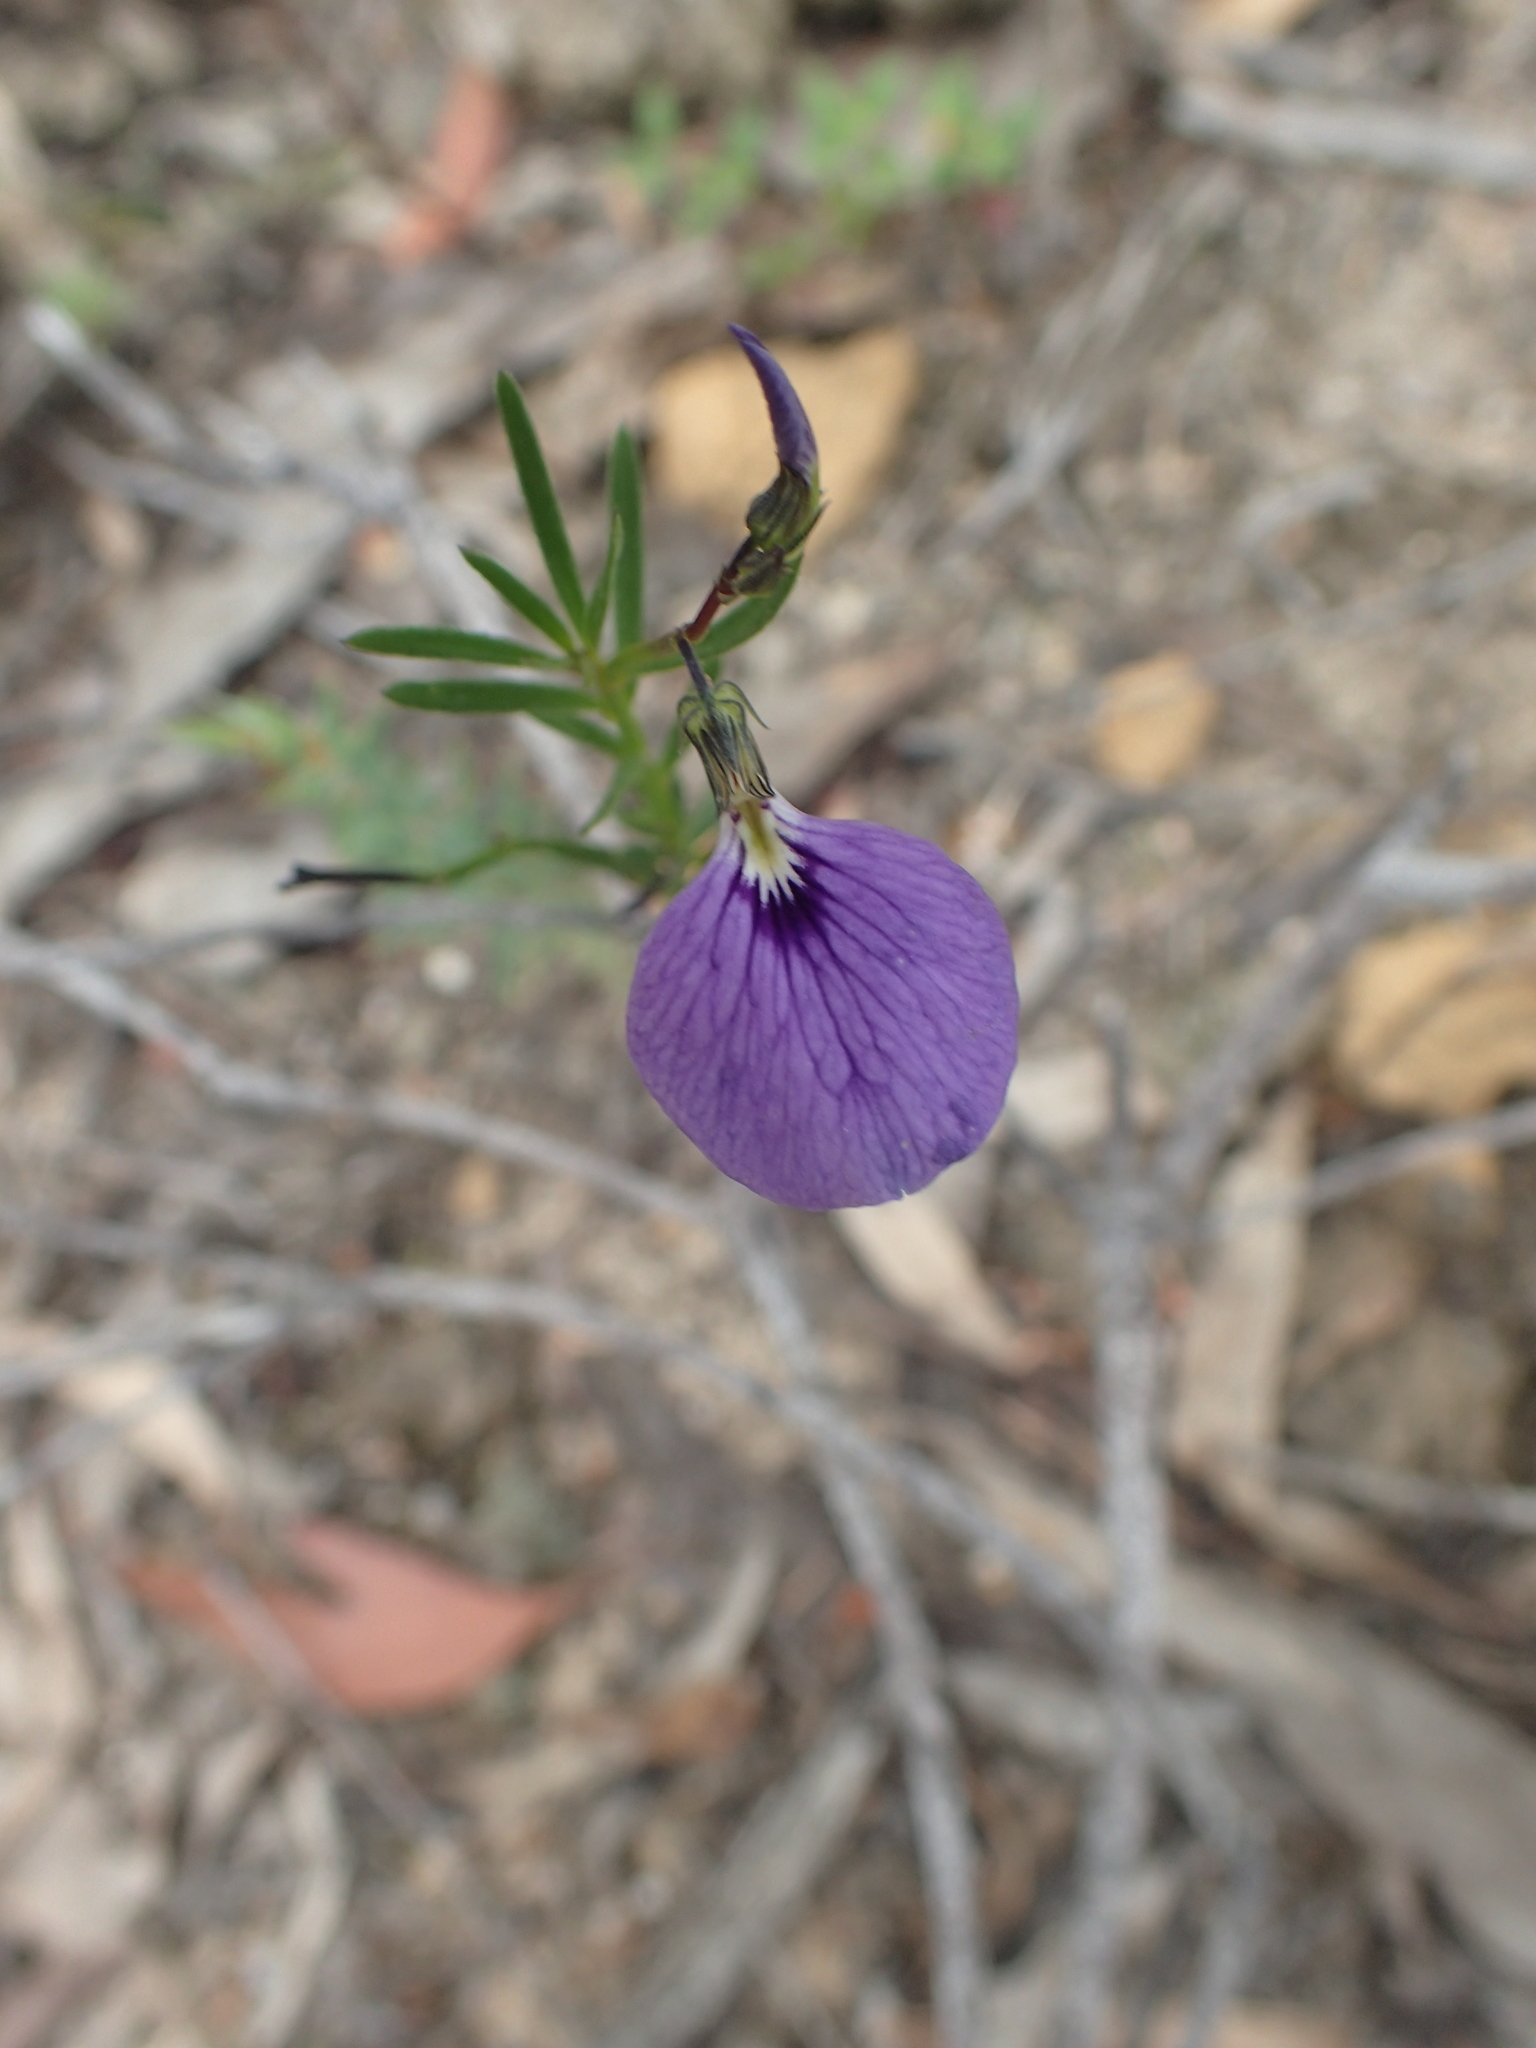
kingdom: Plantae
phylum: Tracheophyta
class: Magnoliopsida
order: Malpighiales
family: Violaceae
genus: Pigea
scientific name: Pigea monopetala
